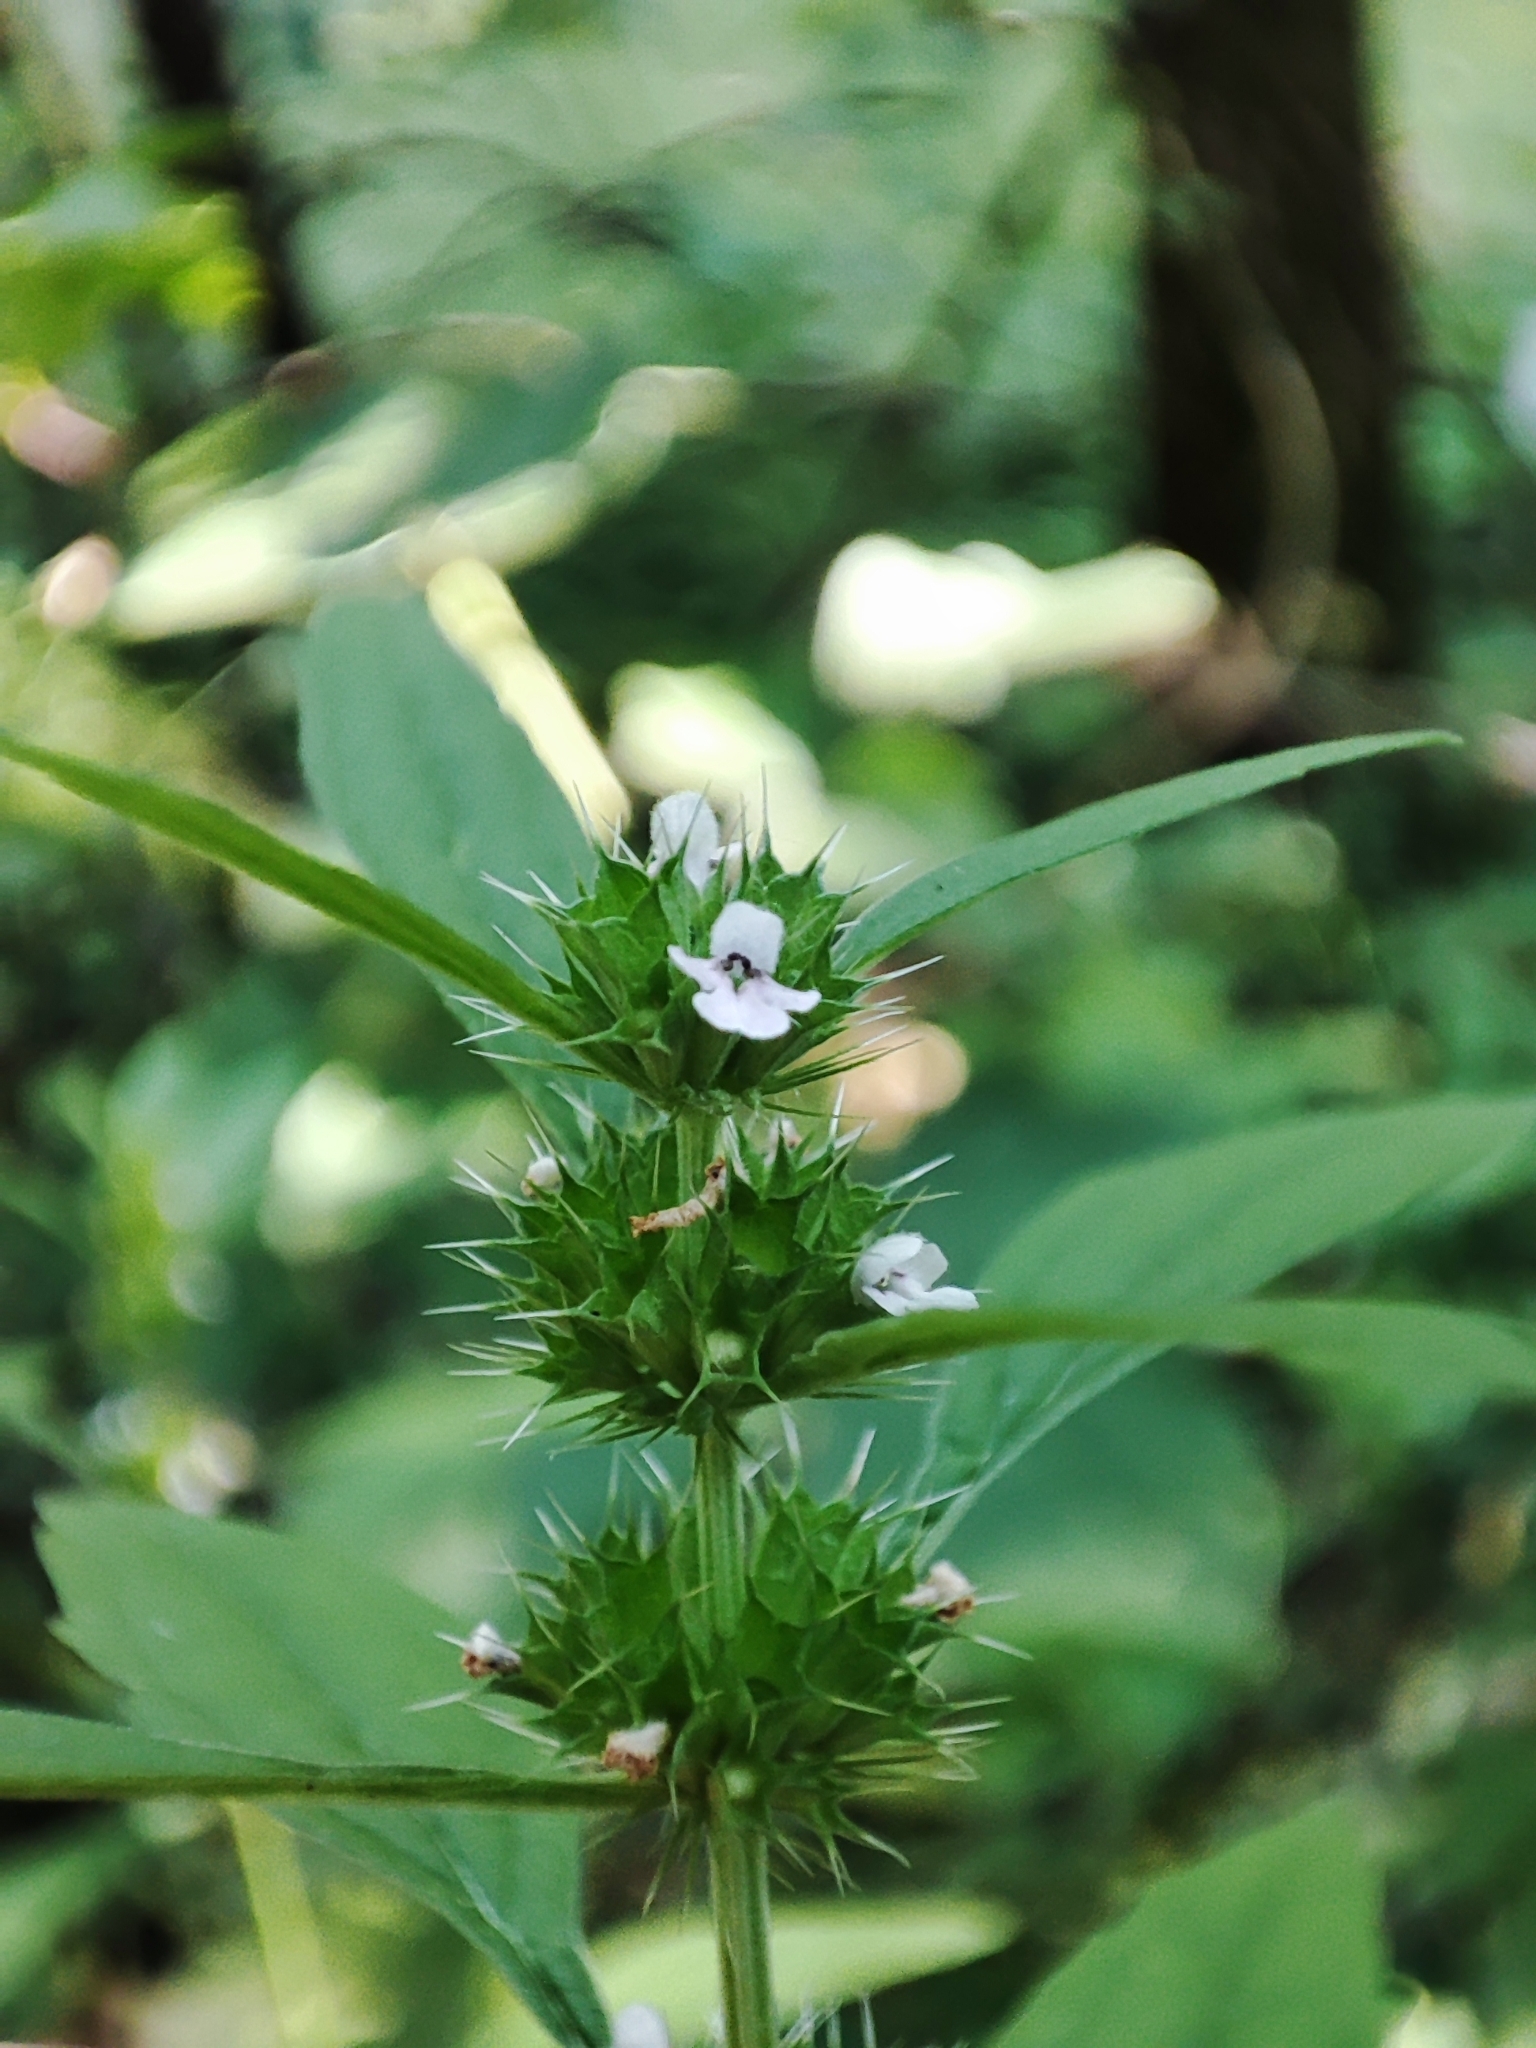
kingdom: Plantae
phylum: Tracheophyta
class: Magnoliopsida
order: Lamiales
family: Lamiaceae
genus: Chaiturus
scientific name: Chaiturus marrubiastrum
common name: Lion's tail
